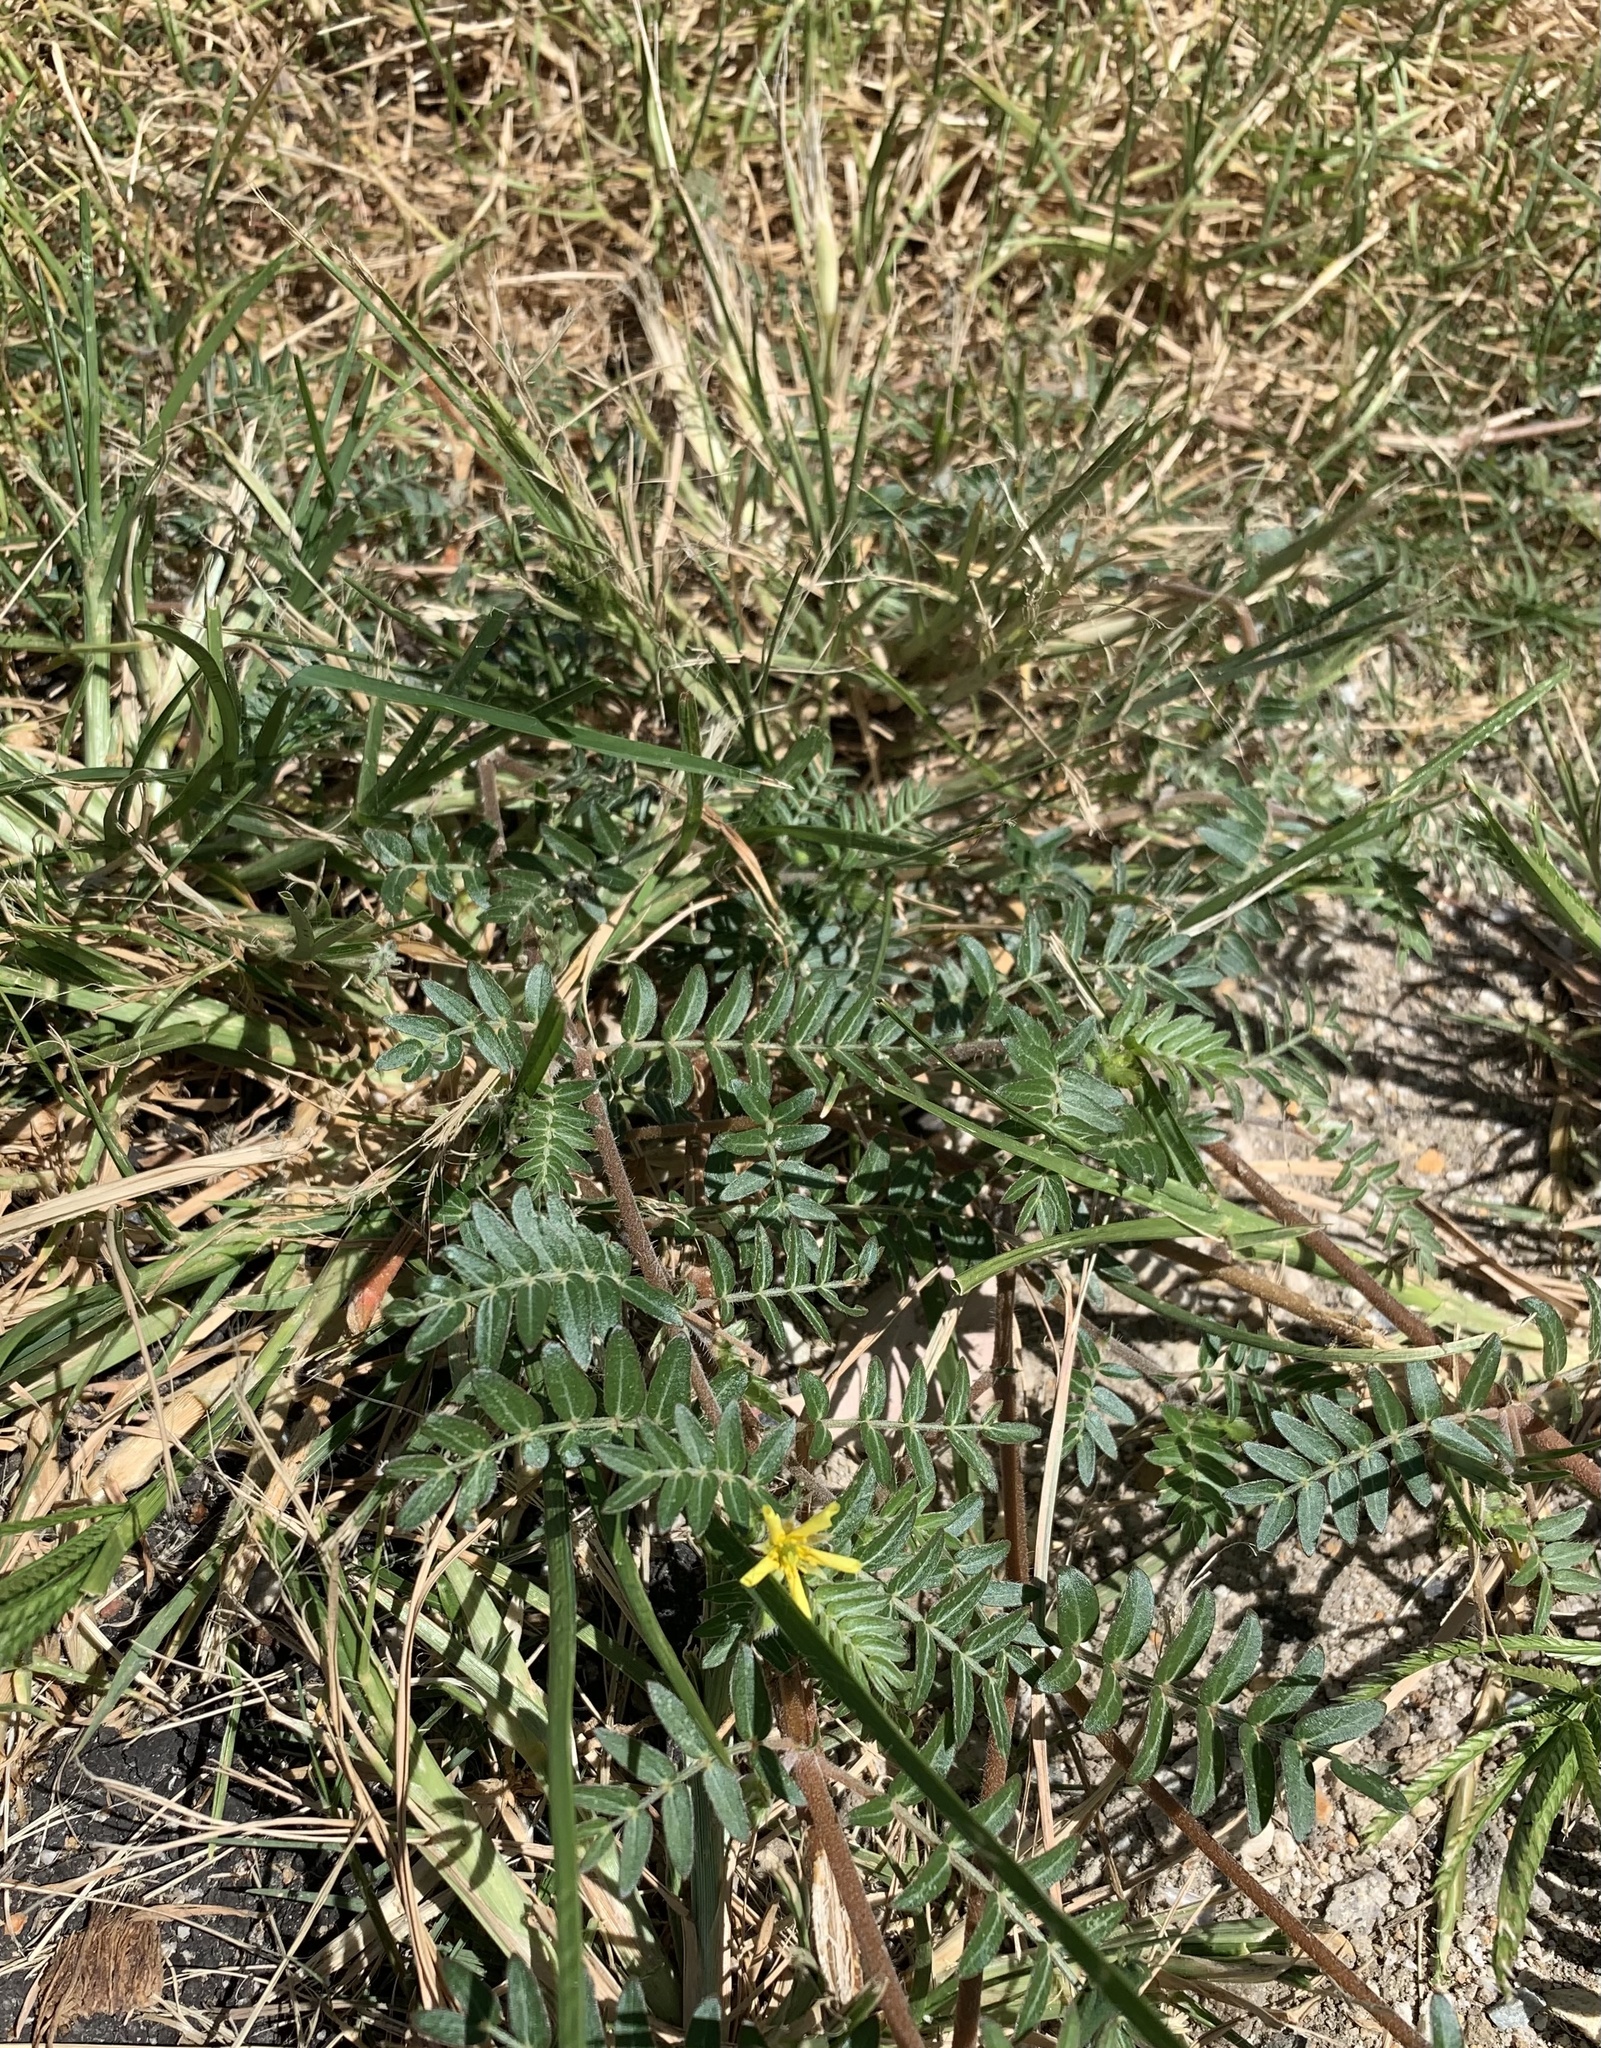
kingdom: Plantae
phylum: Tracheophyta
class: Magnoliopsida
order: Zygophyllales
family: Zygophyllaceae
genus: Tribulus
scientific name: Tribulus terrestris
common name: Puncturevine
